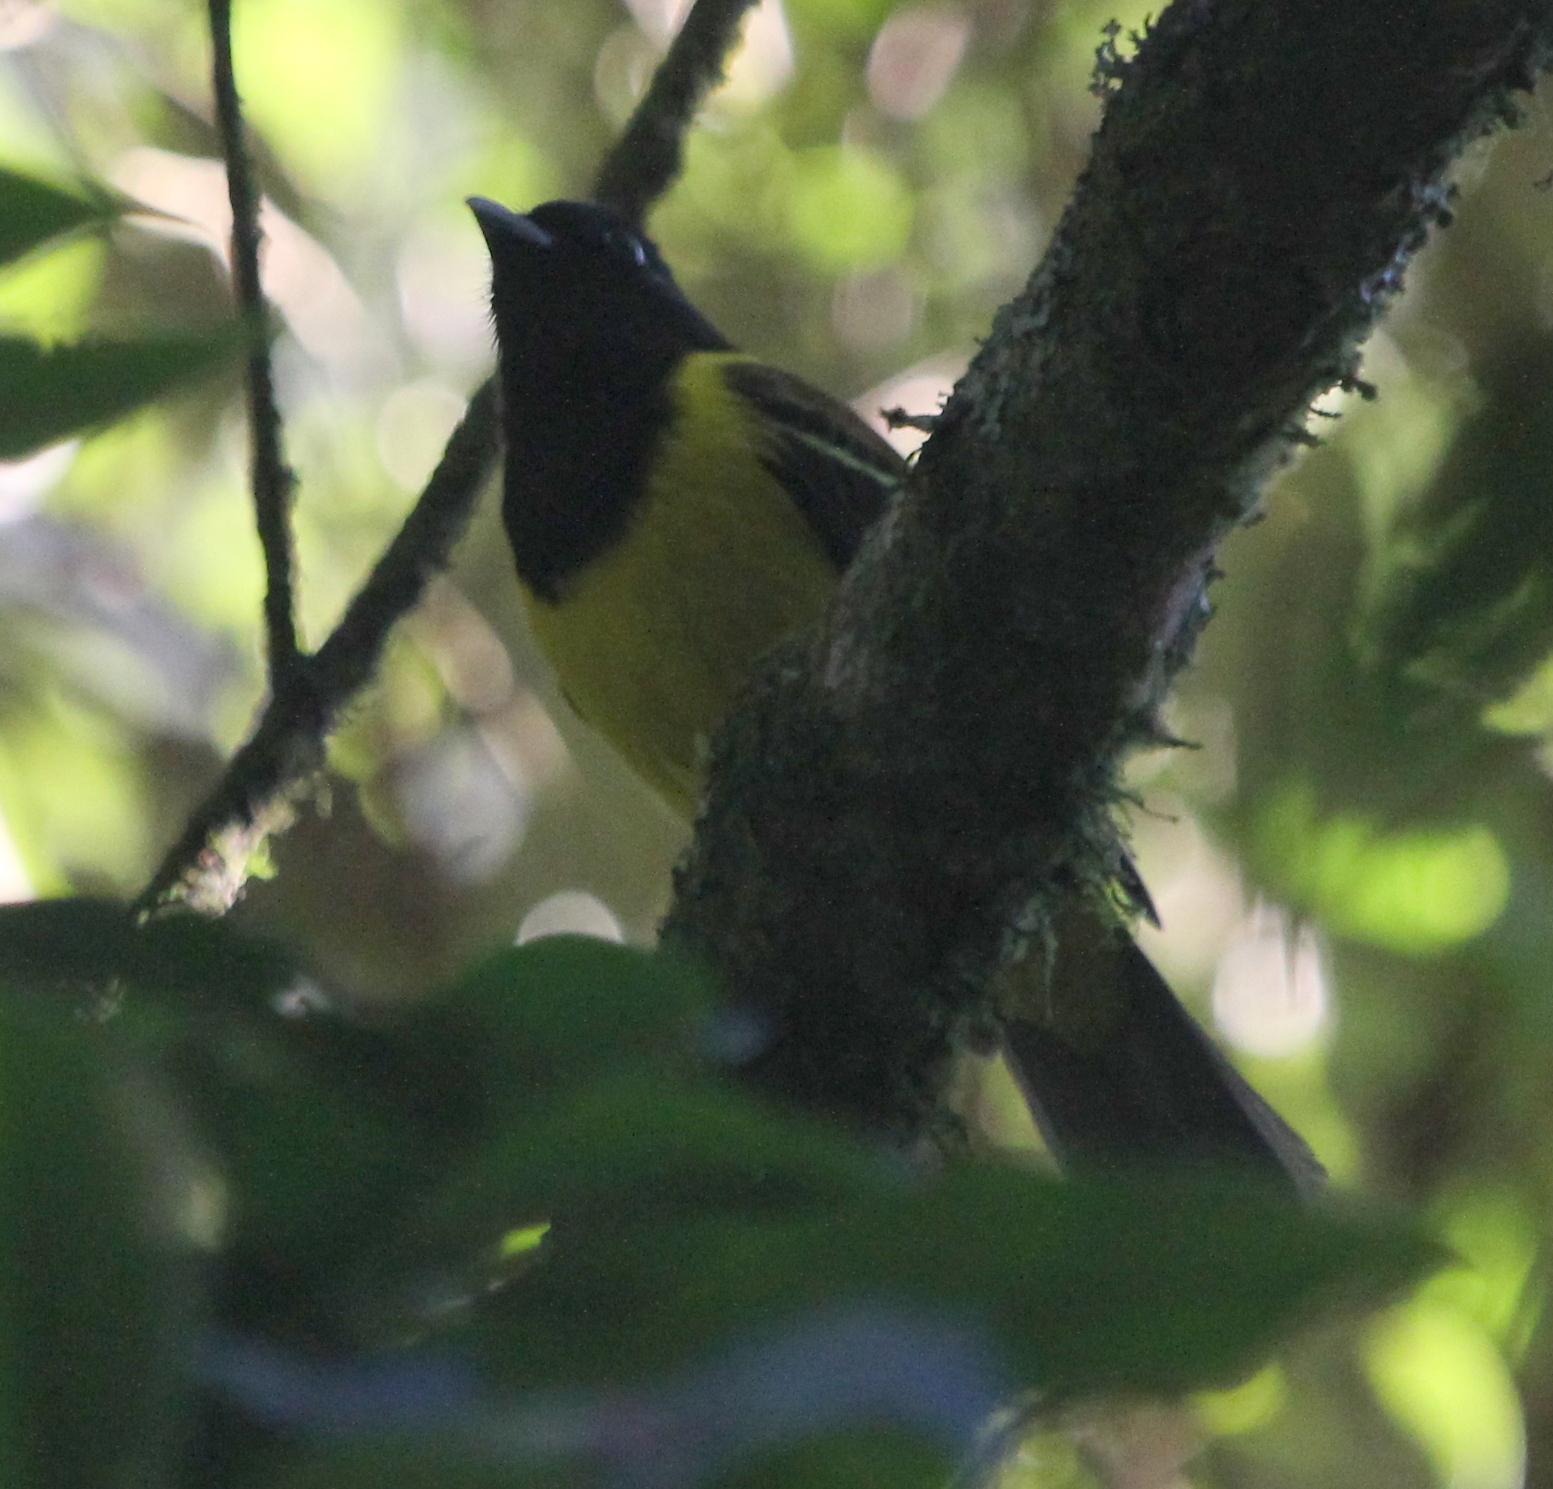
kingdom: Animalia
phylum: Chordata
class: Aves
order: Passeriformes
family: Cotingidae
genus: Carpornis
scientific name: Carpornis cucullata
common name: Hooded berryeater
